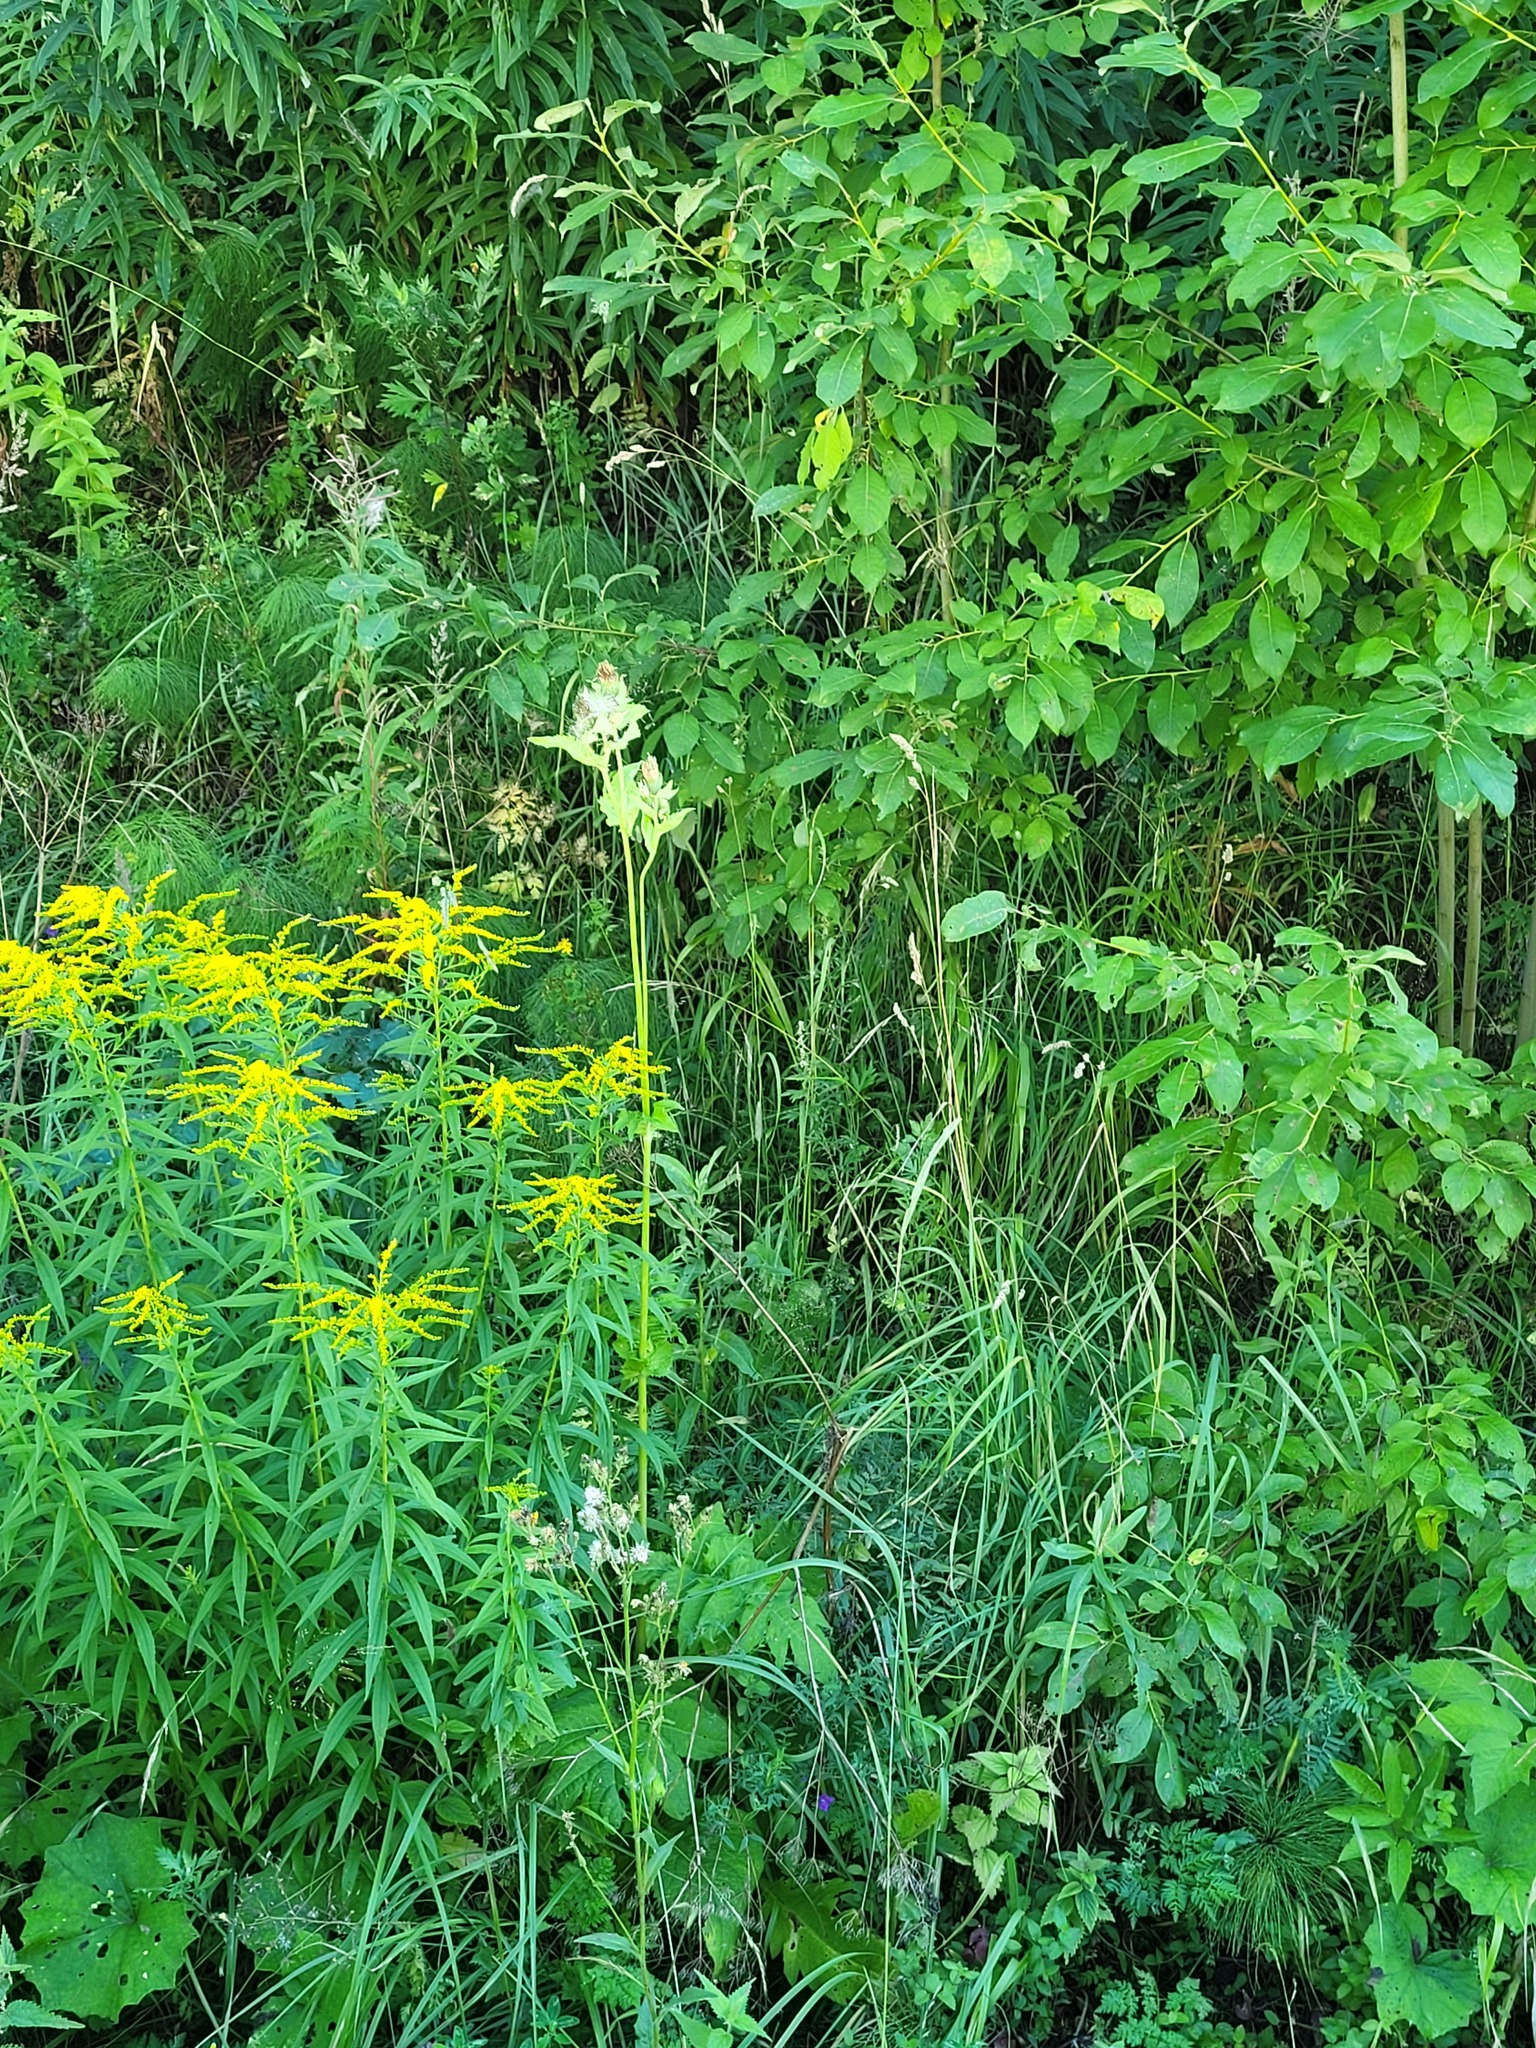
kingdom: Plantae
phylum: Tracheophyta
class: Magnoliopsida
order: Asterales
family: Asteraceae
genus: Cirsium
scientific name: Cirsium oleraceum
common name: Cabbage thistle
